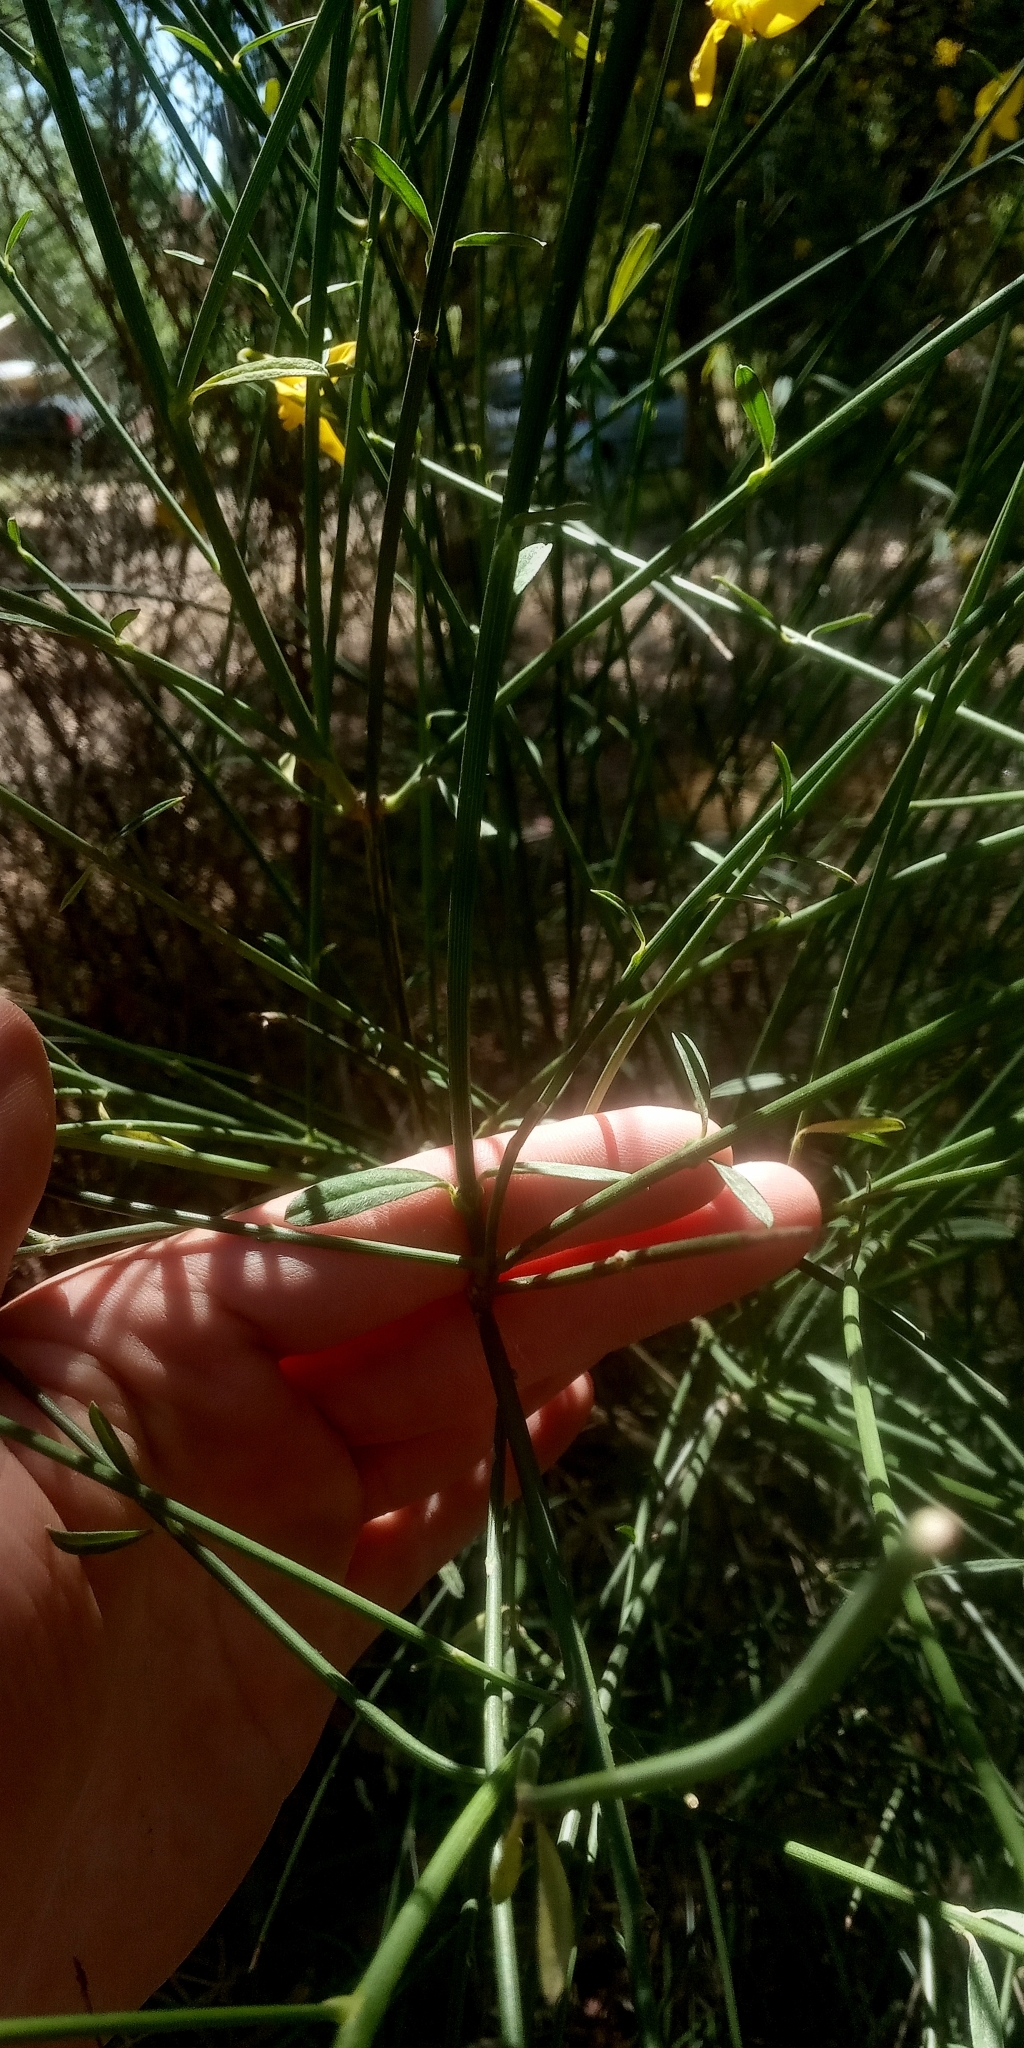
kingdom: Plantae
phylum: Tracheophyta
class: Magnoliopsida
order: Fabales
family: Fabaceae
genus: Spartium
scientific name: Spartium junceum
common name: Spanish broom
